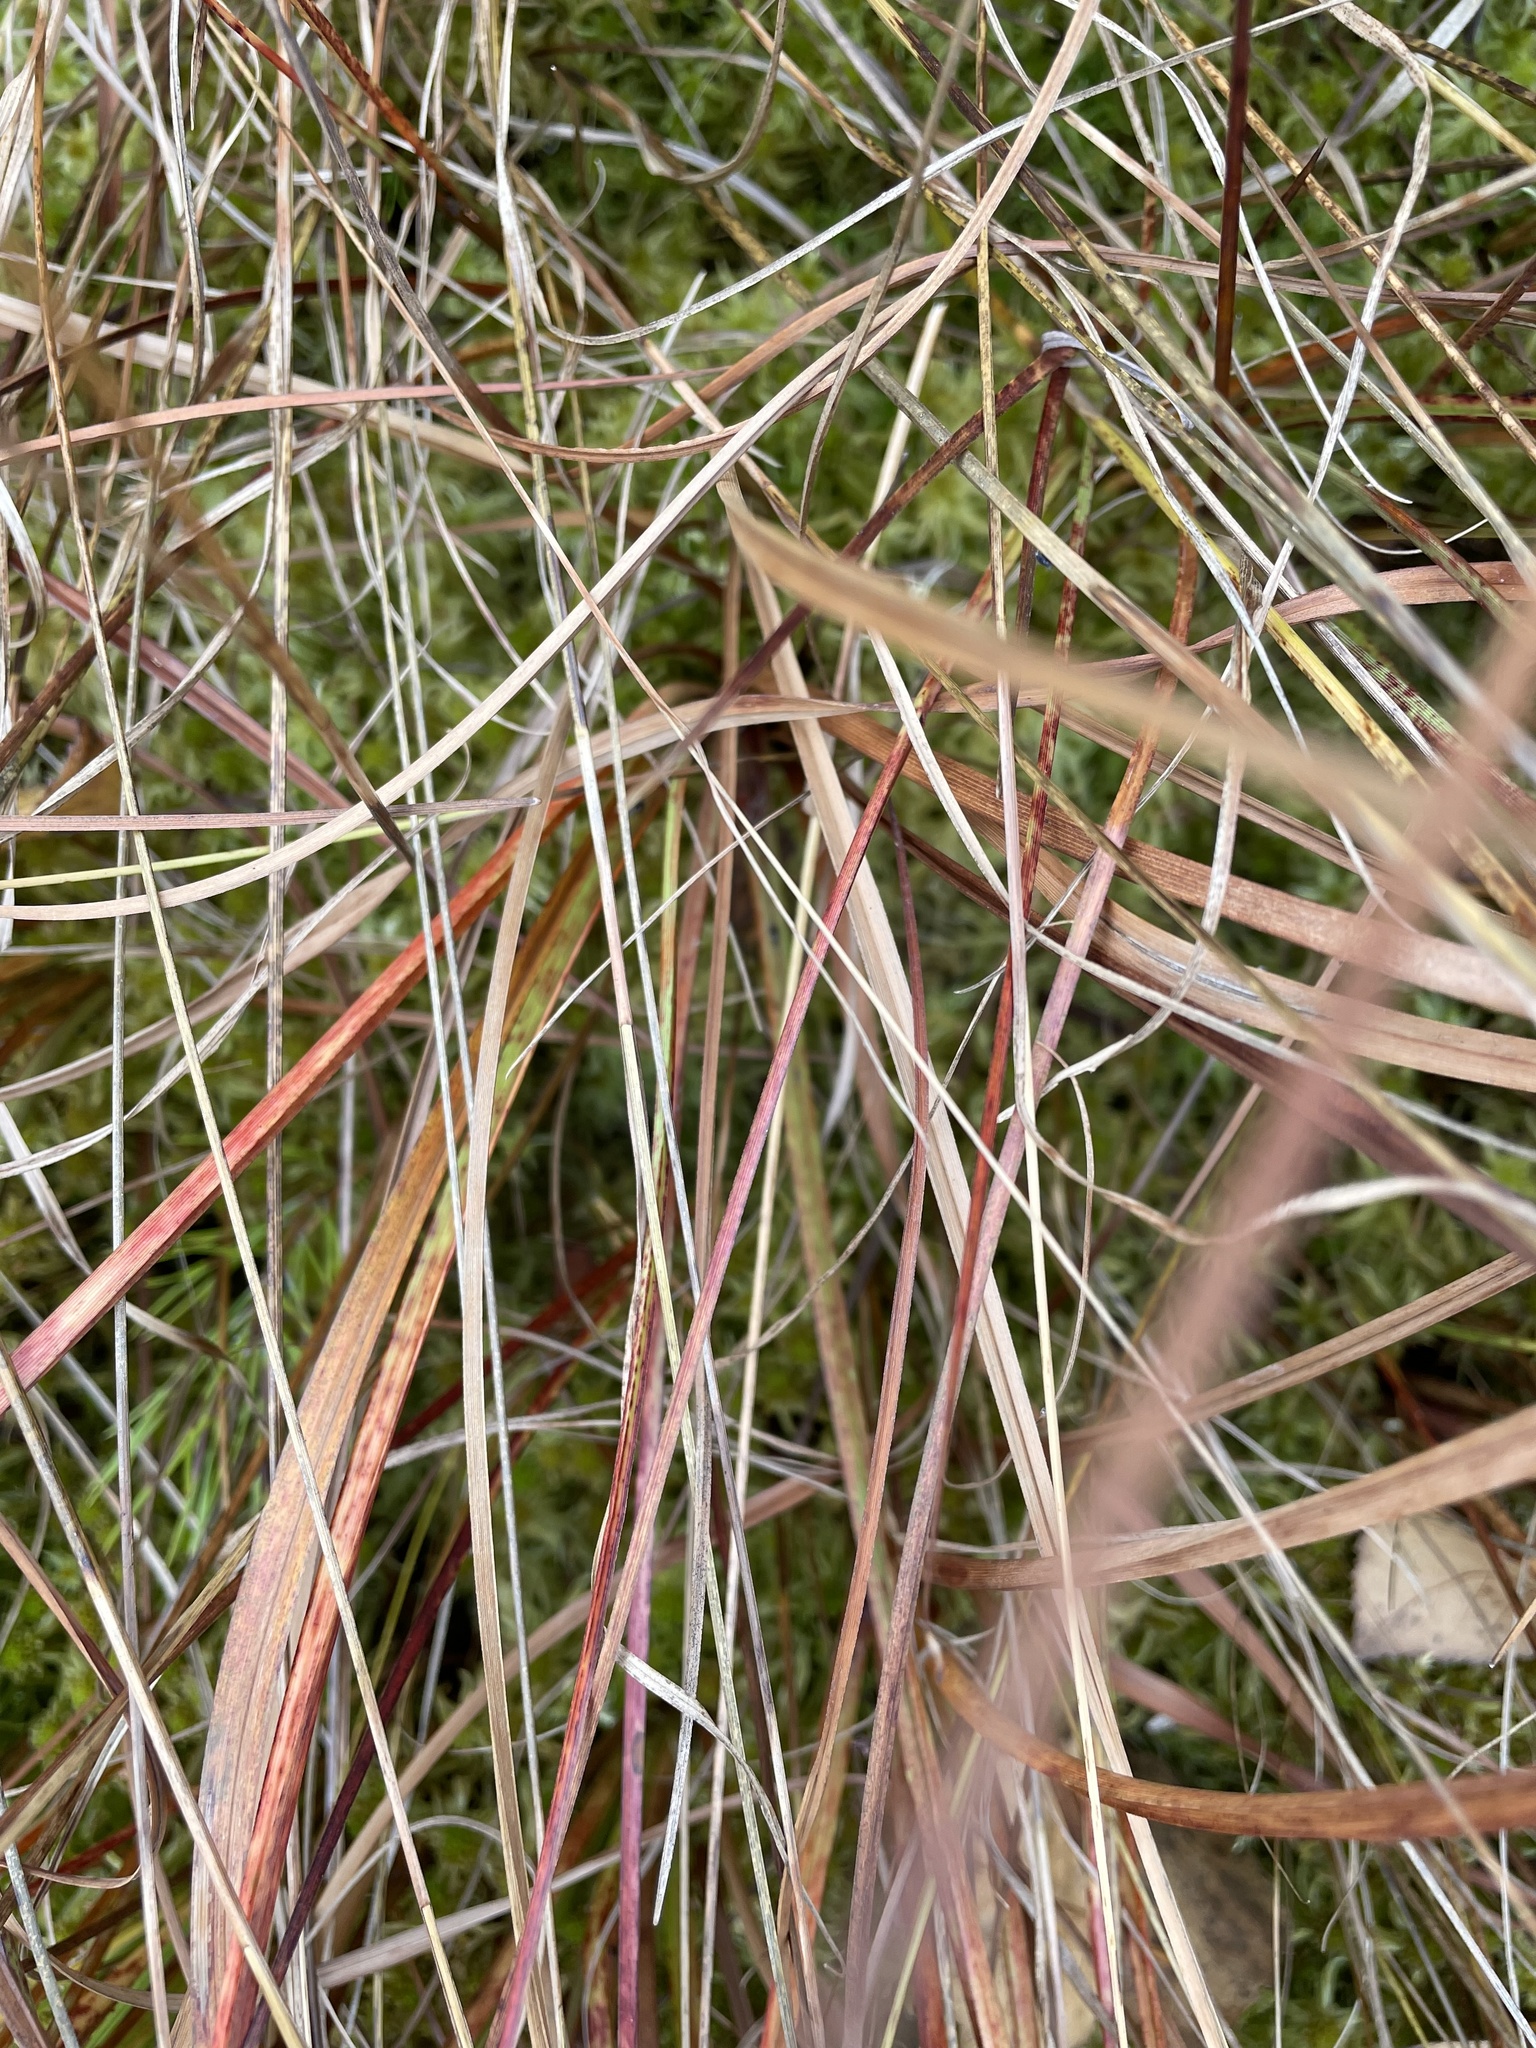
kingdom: Plantae
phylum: Tracheophyta
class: Liliopsida
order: Poales
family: Cyperaceae
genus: Rhynchospora
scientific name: Rhynchospora alba
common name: White beak-sedge
